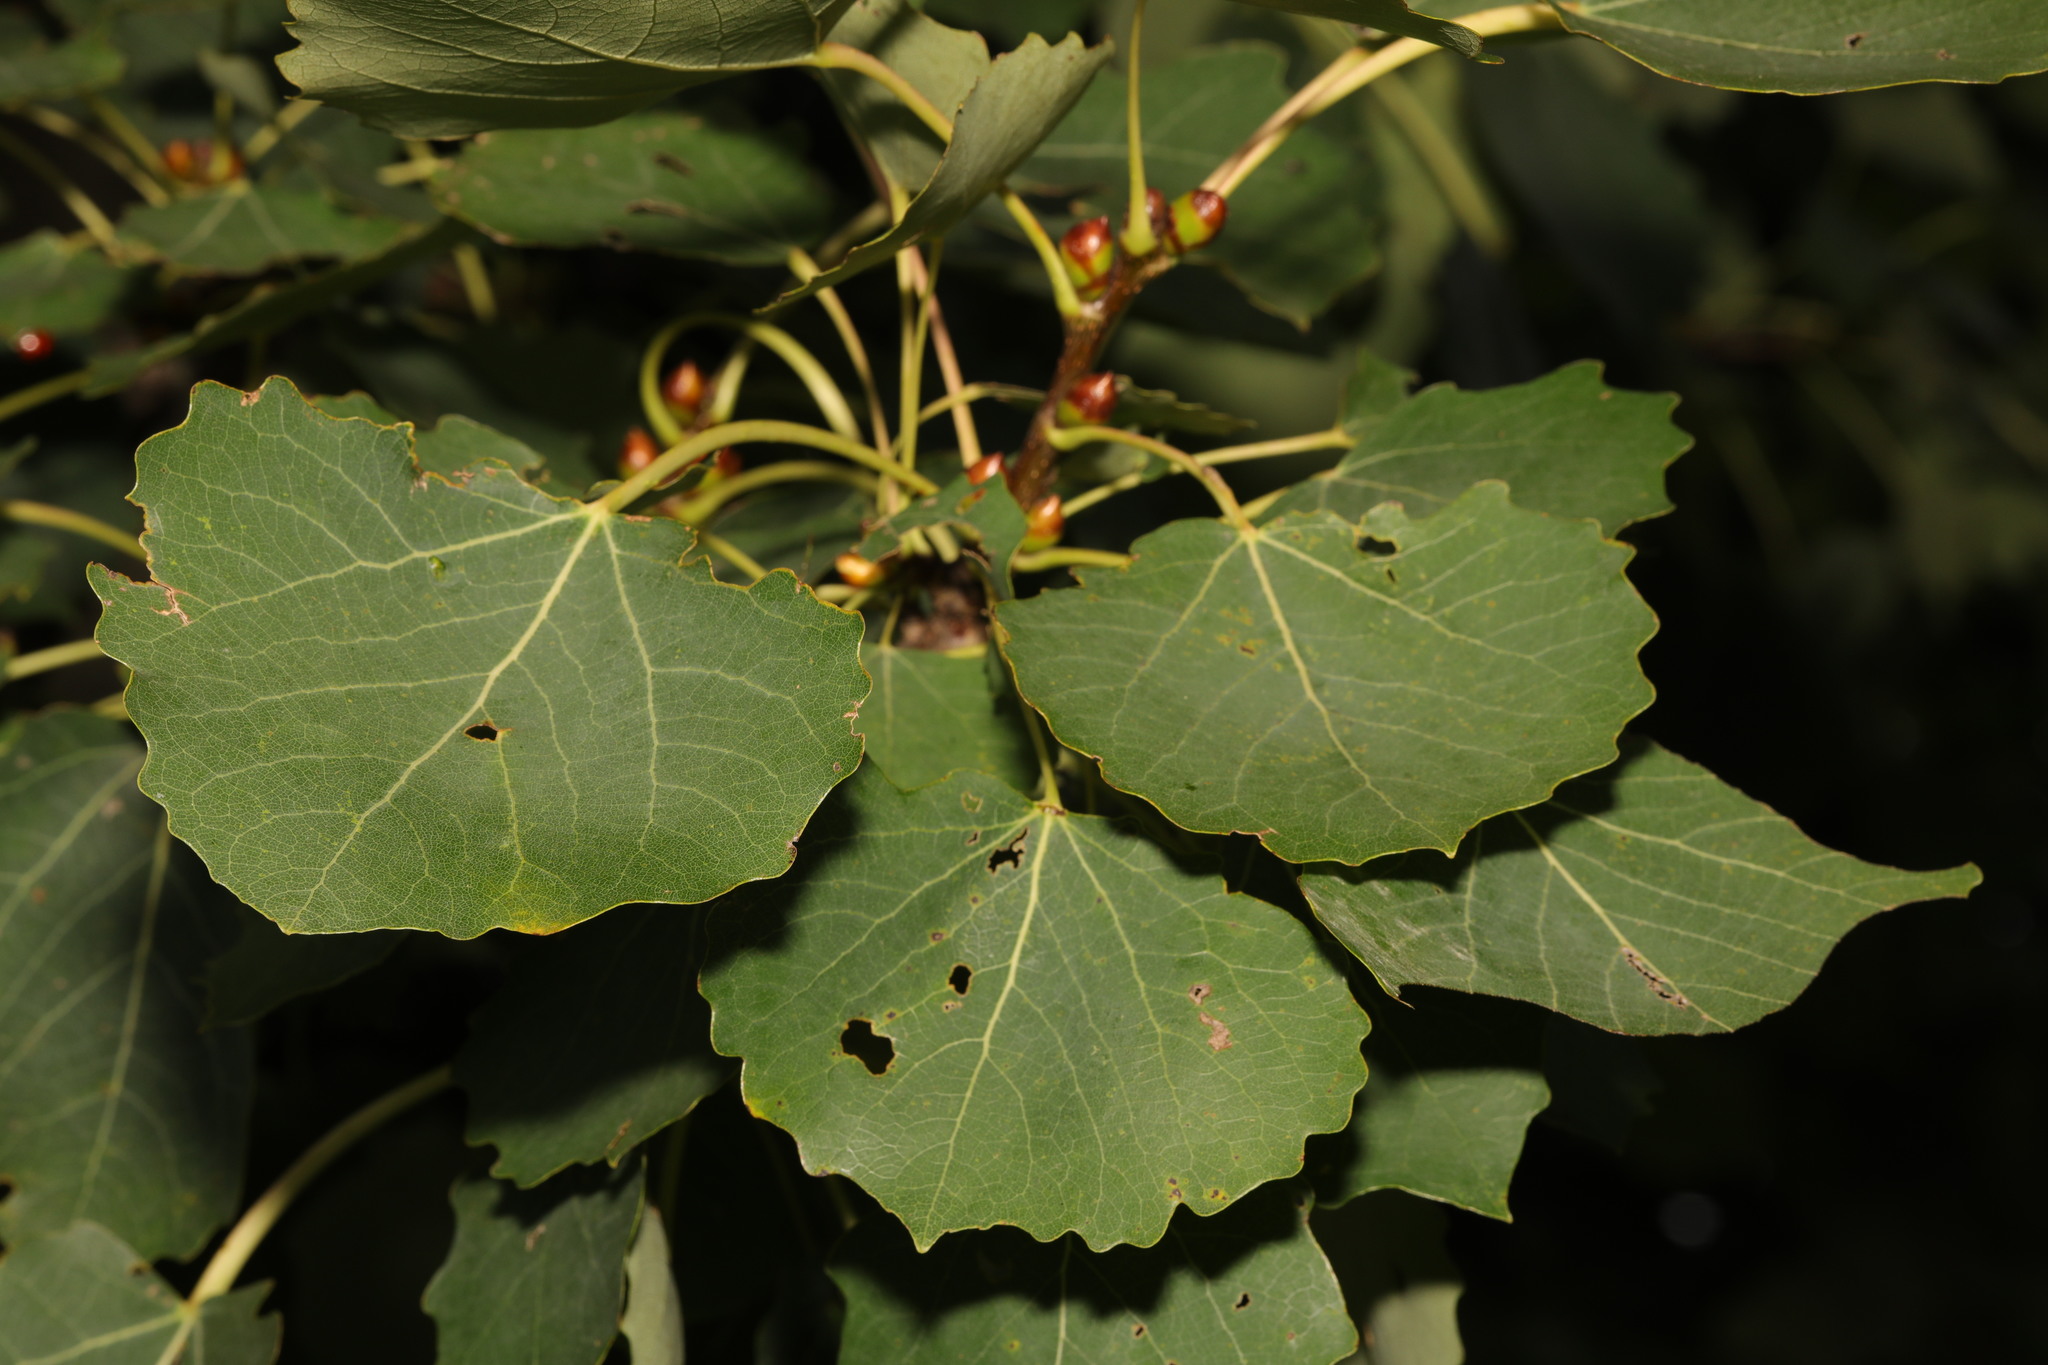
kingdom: Plantae
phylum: Tracheophyta
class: Magnoliopsida
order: Malpighiales
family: Salicaceae
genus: Populus
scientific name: Populus tremula
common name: European aspen
